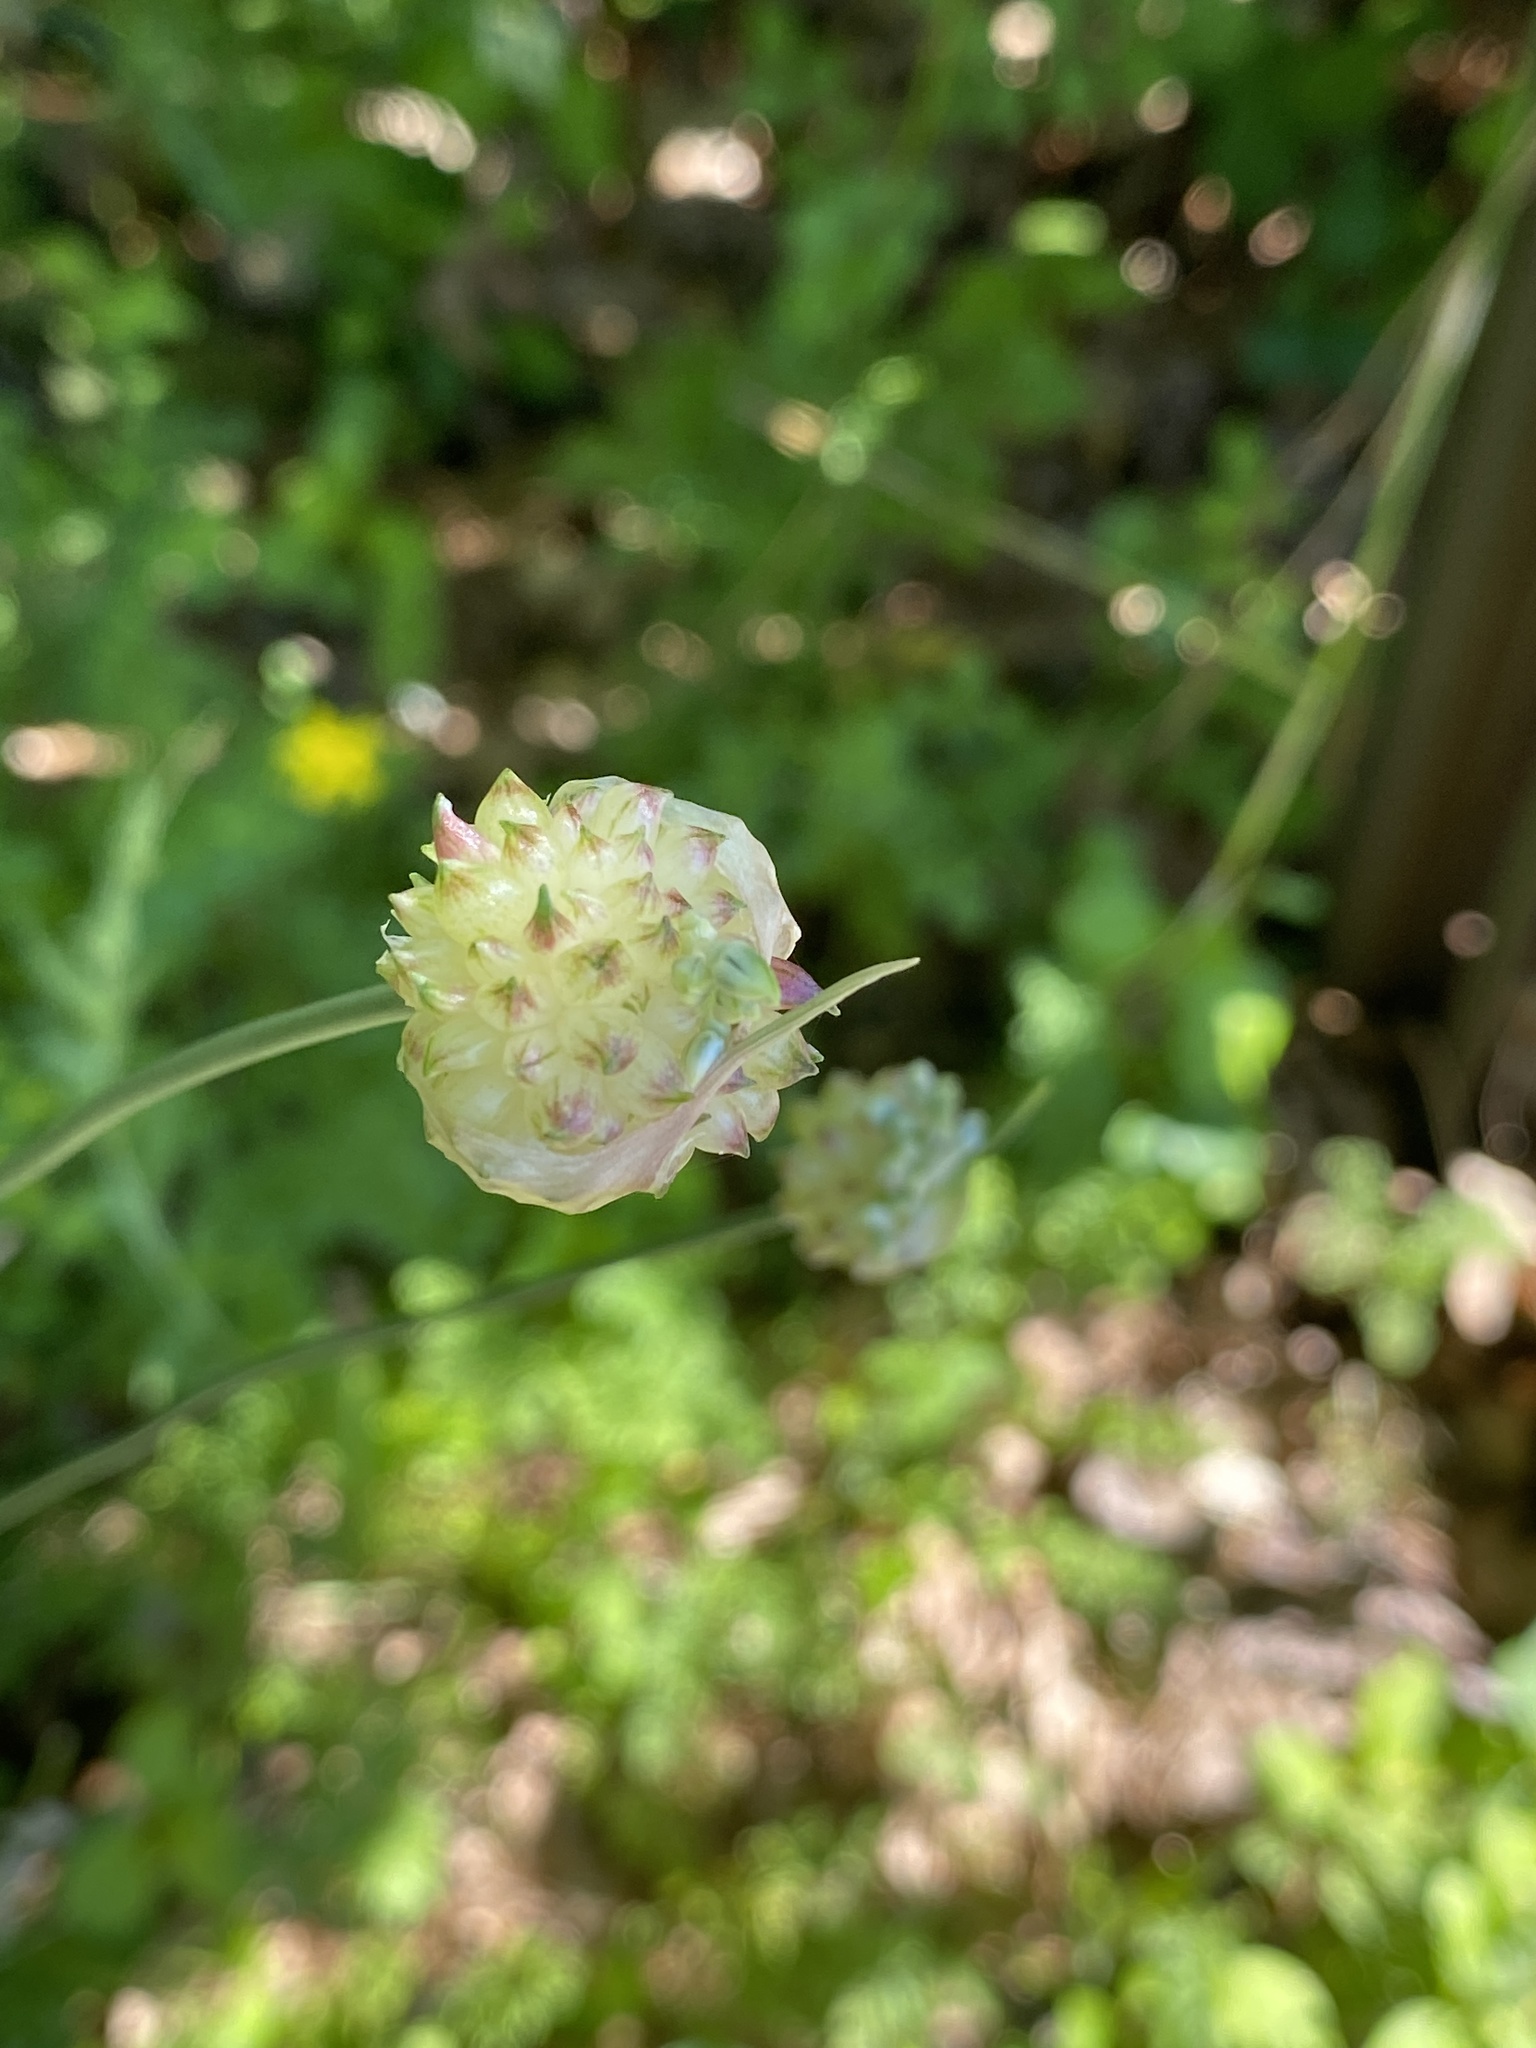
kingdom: Plantae
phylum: Tracheophyta
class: Liliopsida
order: Asparagales
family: Amaryllidaceae
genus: Allium
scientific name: Allium vineale
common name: Crow garlic
